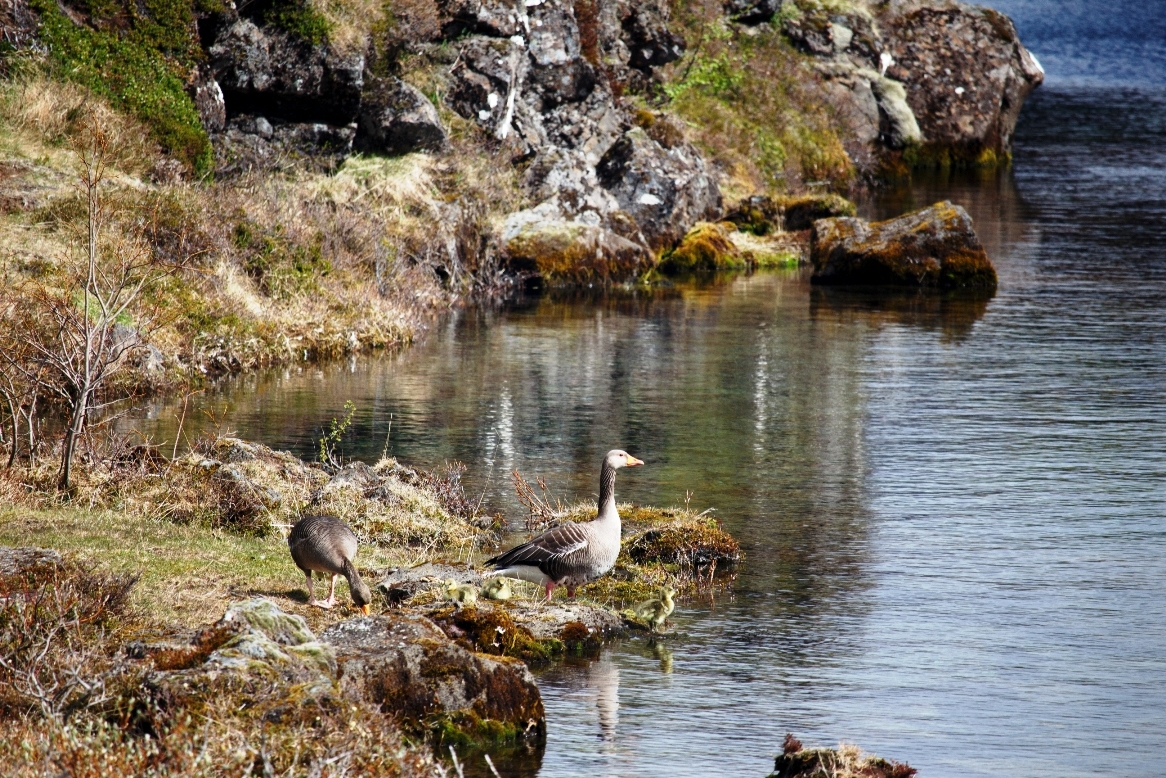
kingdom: Animalia
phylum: Chordata
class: Aves
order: Anseriformes
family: Anatidae
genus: Anser
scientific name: Anser anser
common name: Greylag goose
